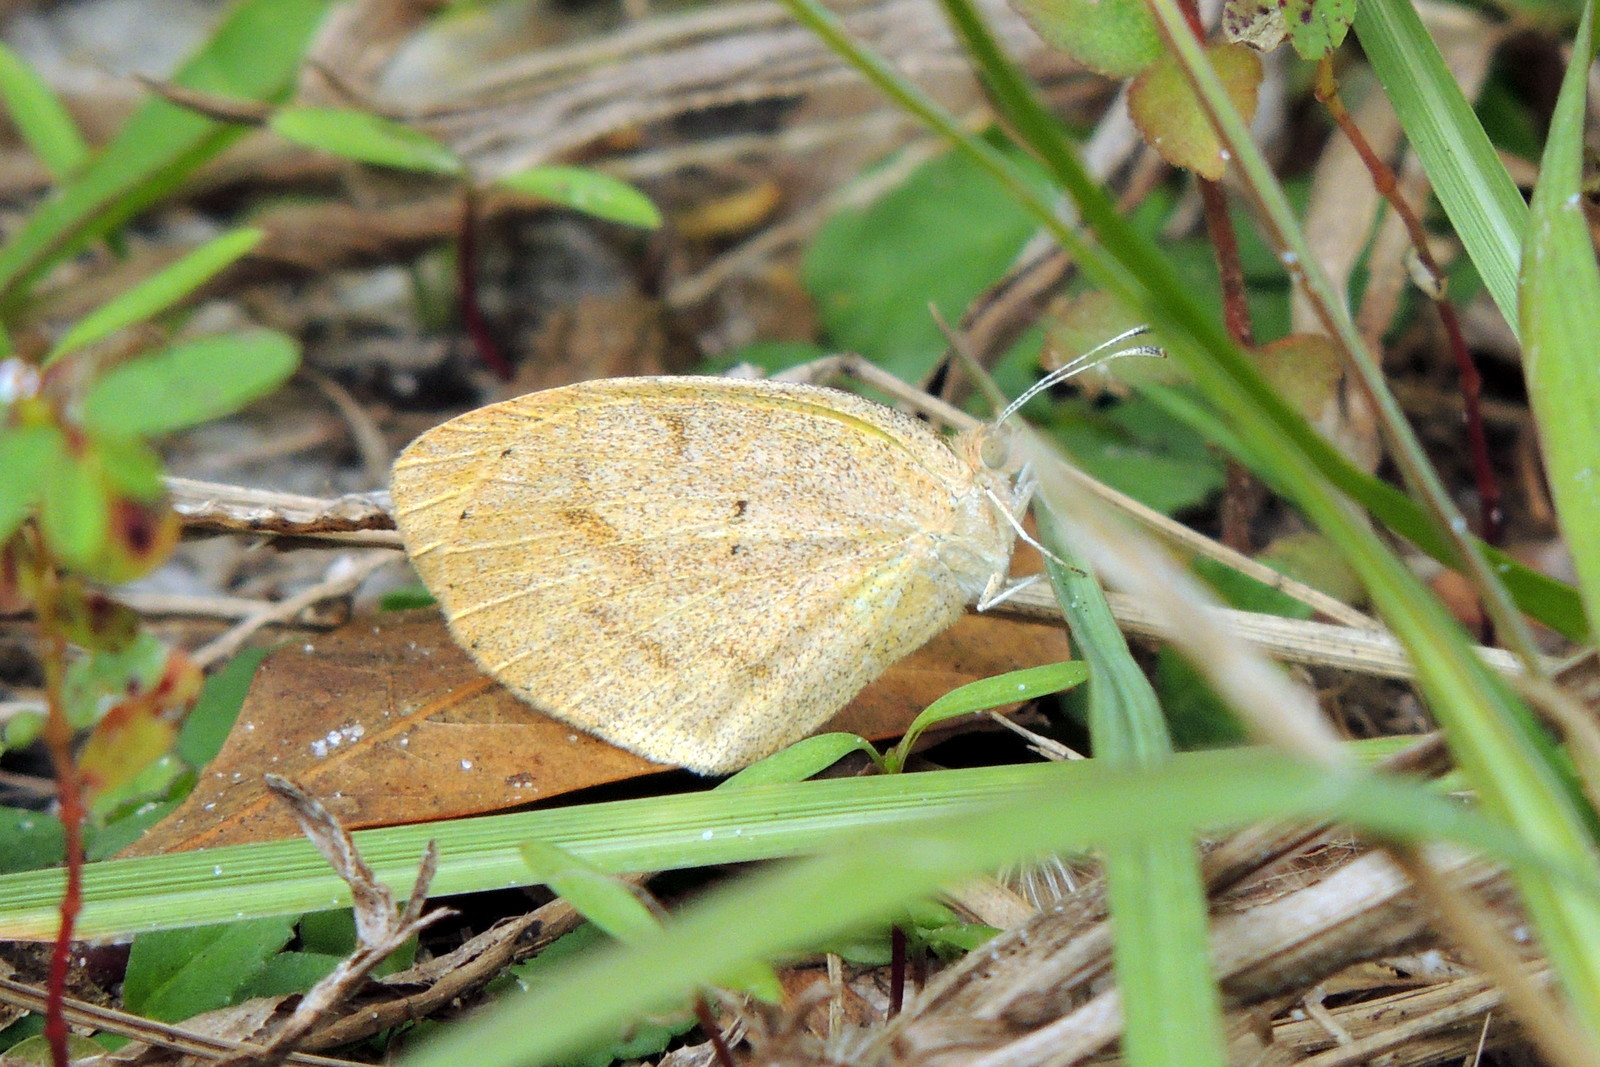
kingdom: Animalia
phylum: Arthropoda
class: Insecta
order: Lepidoptera
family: Pieridae
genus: Eurema
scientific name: Eurema daira
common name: Barred sulphur
